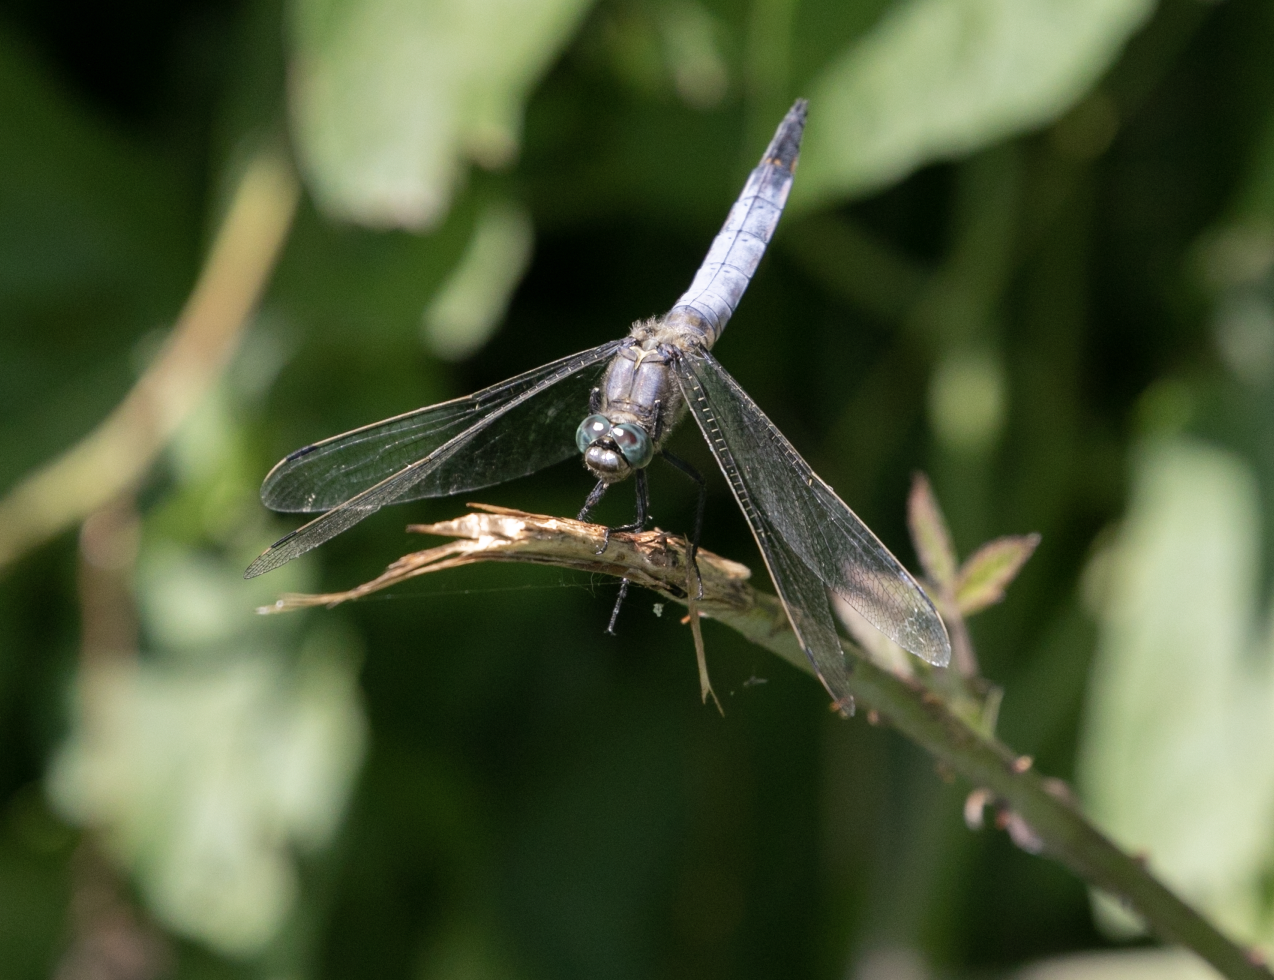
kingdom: Animalia
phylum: Arthropoda
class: Insecta
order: Odonata
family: Libellulidae
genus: Orthetrum
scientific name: Orthetrum cancellatum
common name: Black-tailed skimmer
